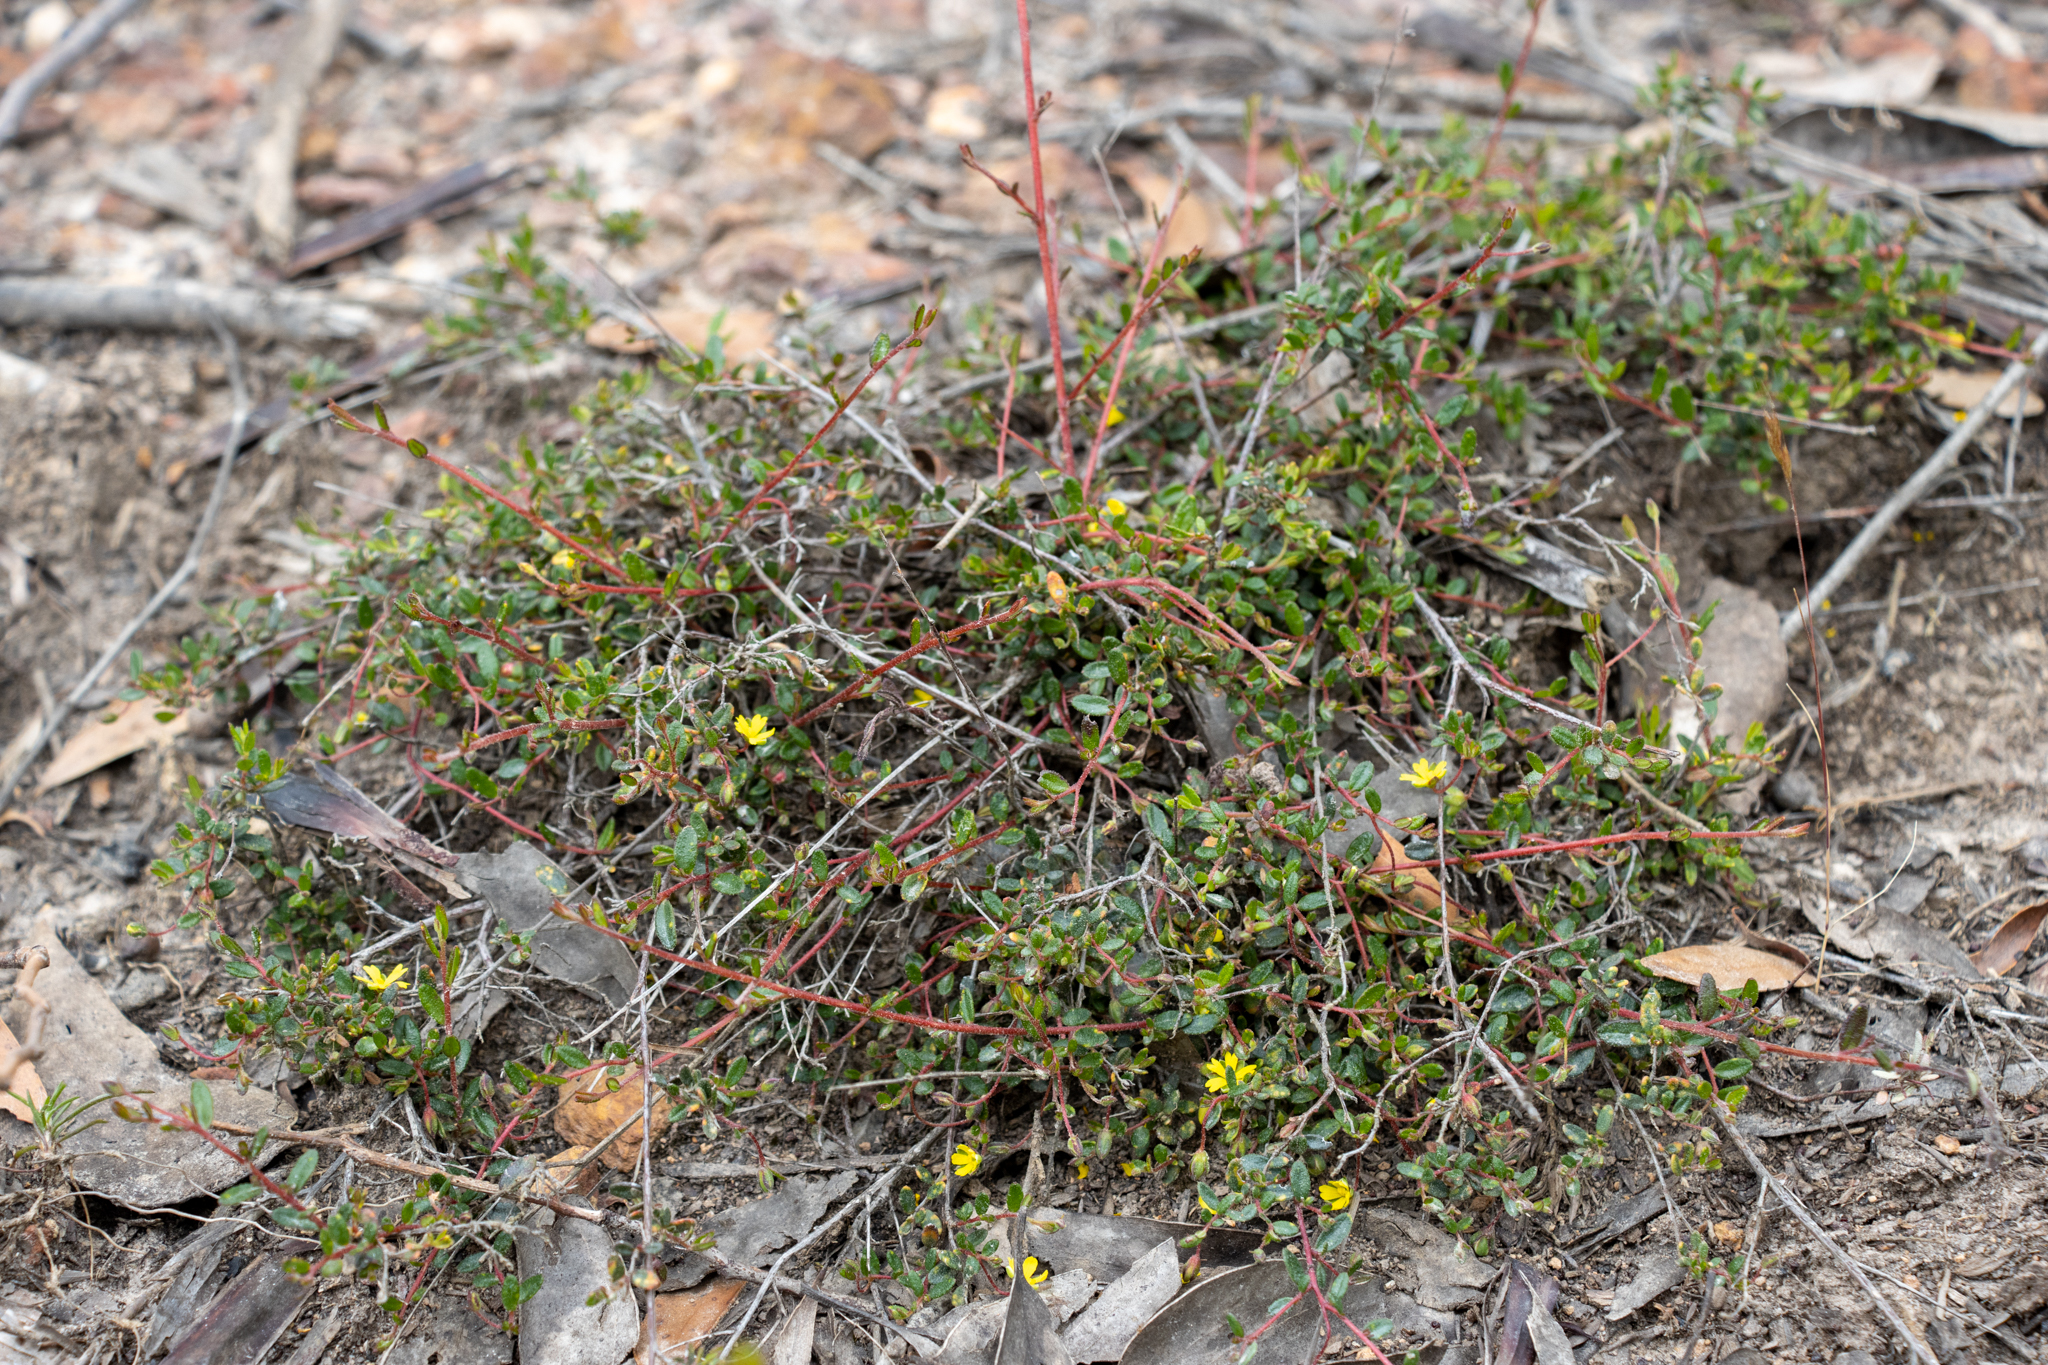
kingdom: Plantae
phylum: Tracheophyta
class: Magnoliopsida
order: Dilleniales
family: Dilleniaceae
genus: Hibbertia
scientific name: Hibbertia
